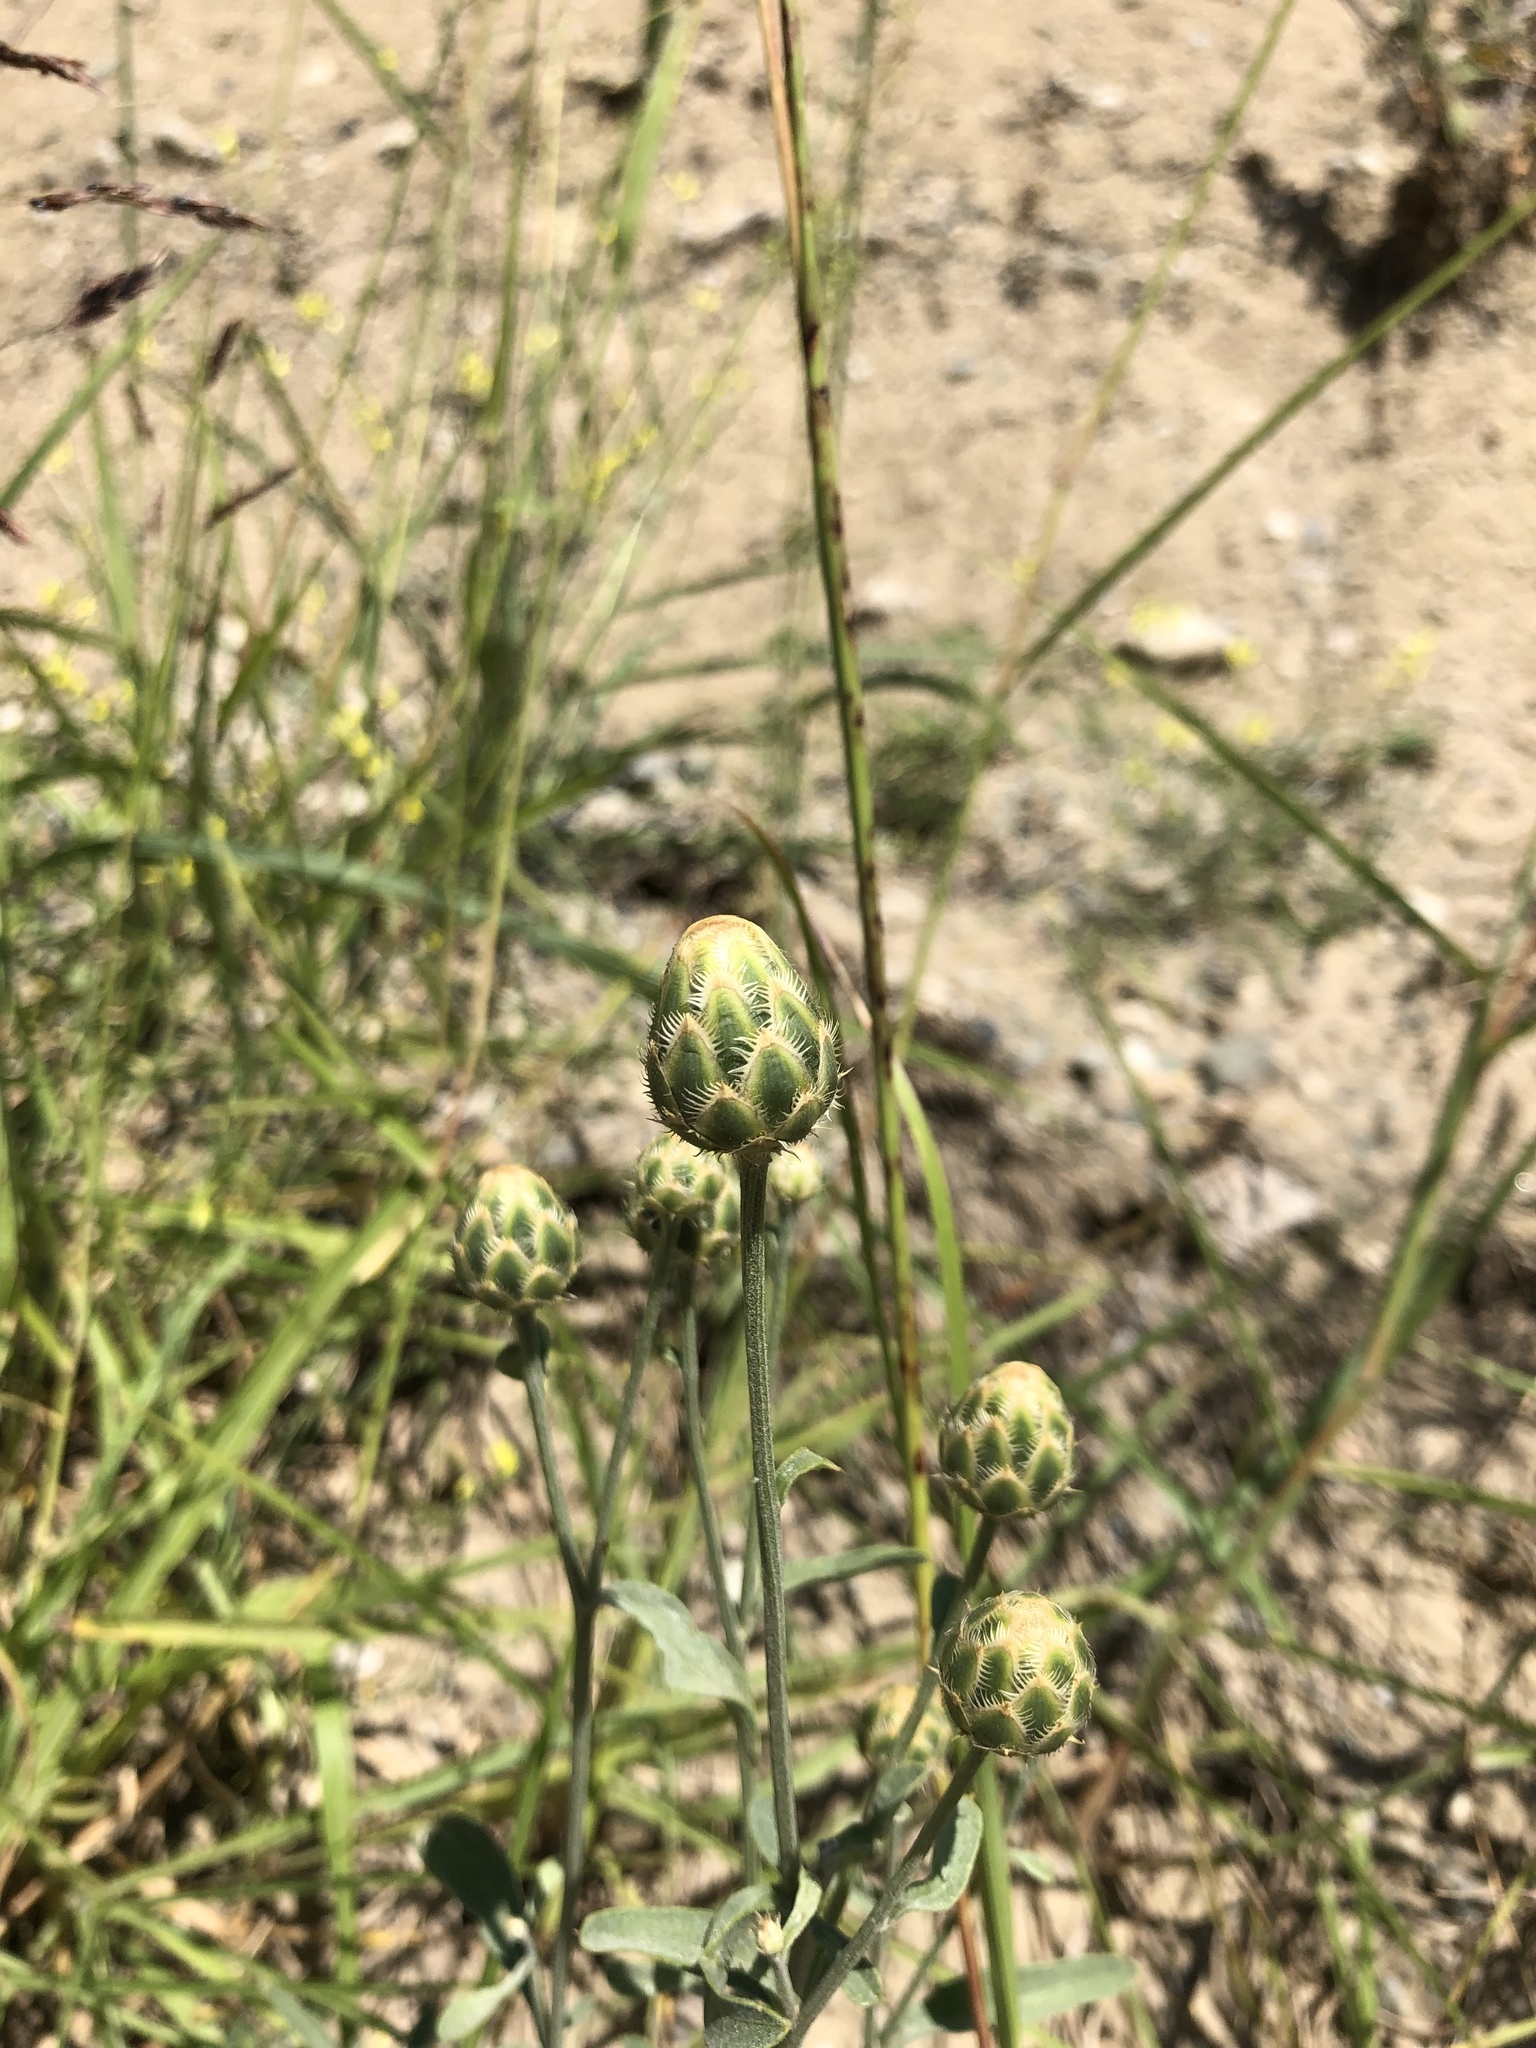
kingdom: Plantae
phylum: Tracheophyta
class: Magnoliopsida
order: Asterales
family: Asteraceae
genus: Centaurea
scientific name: Centaurea salonitana
